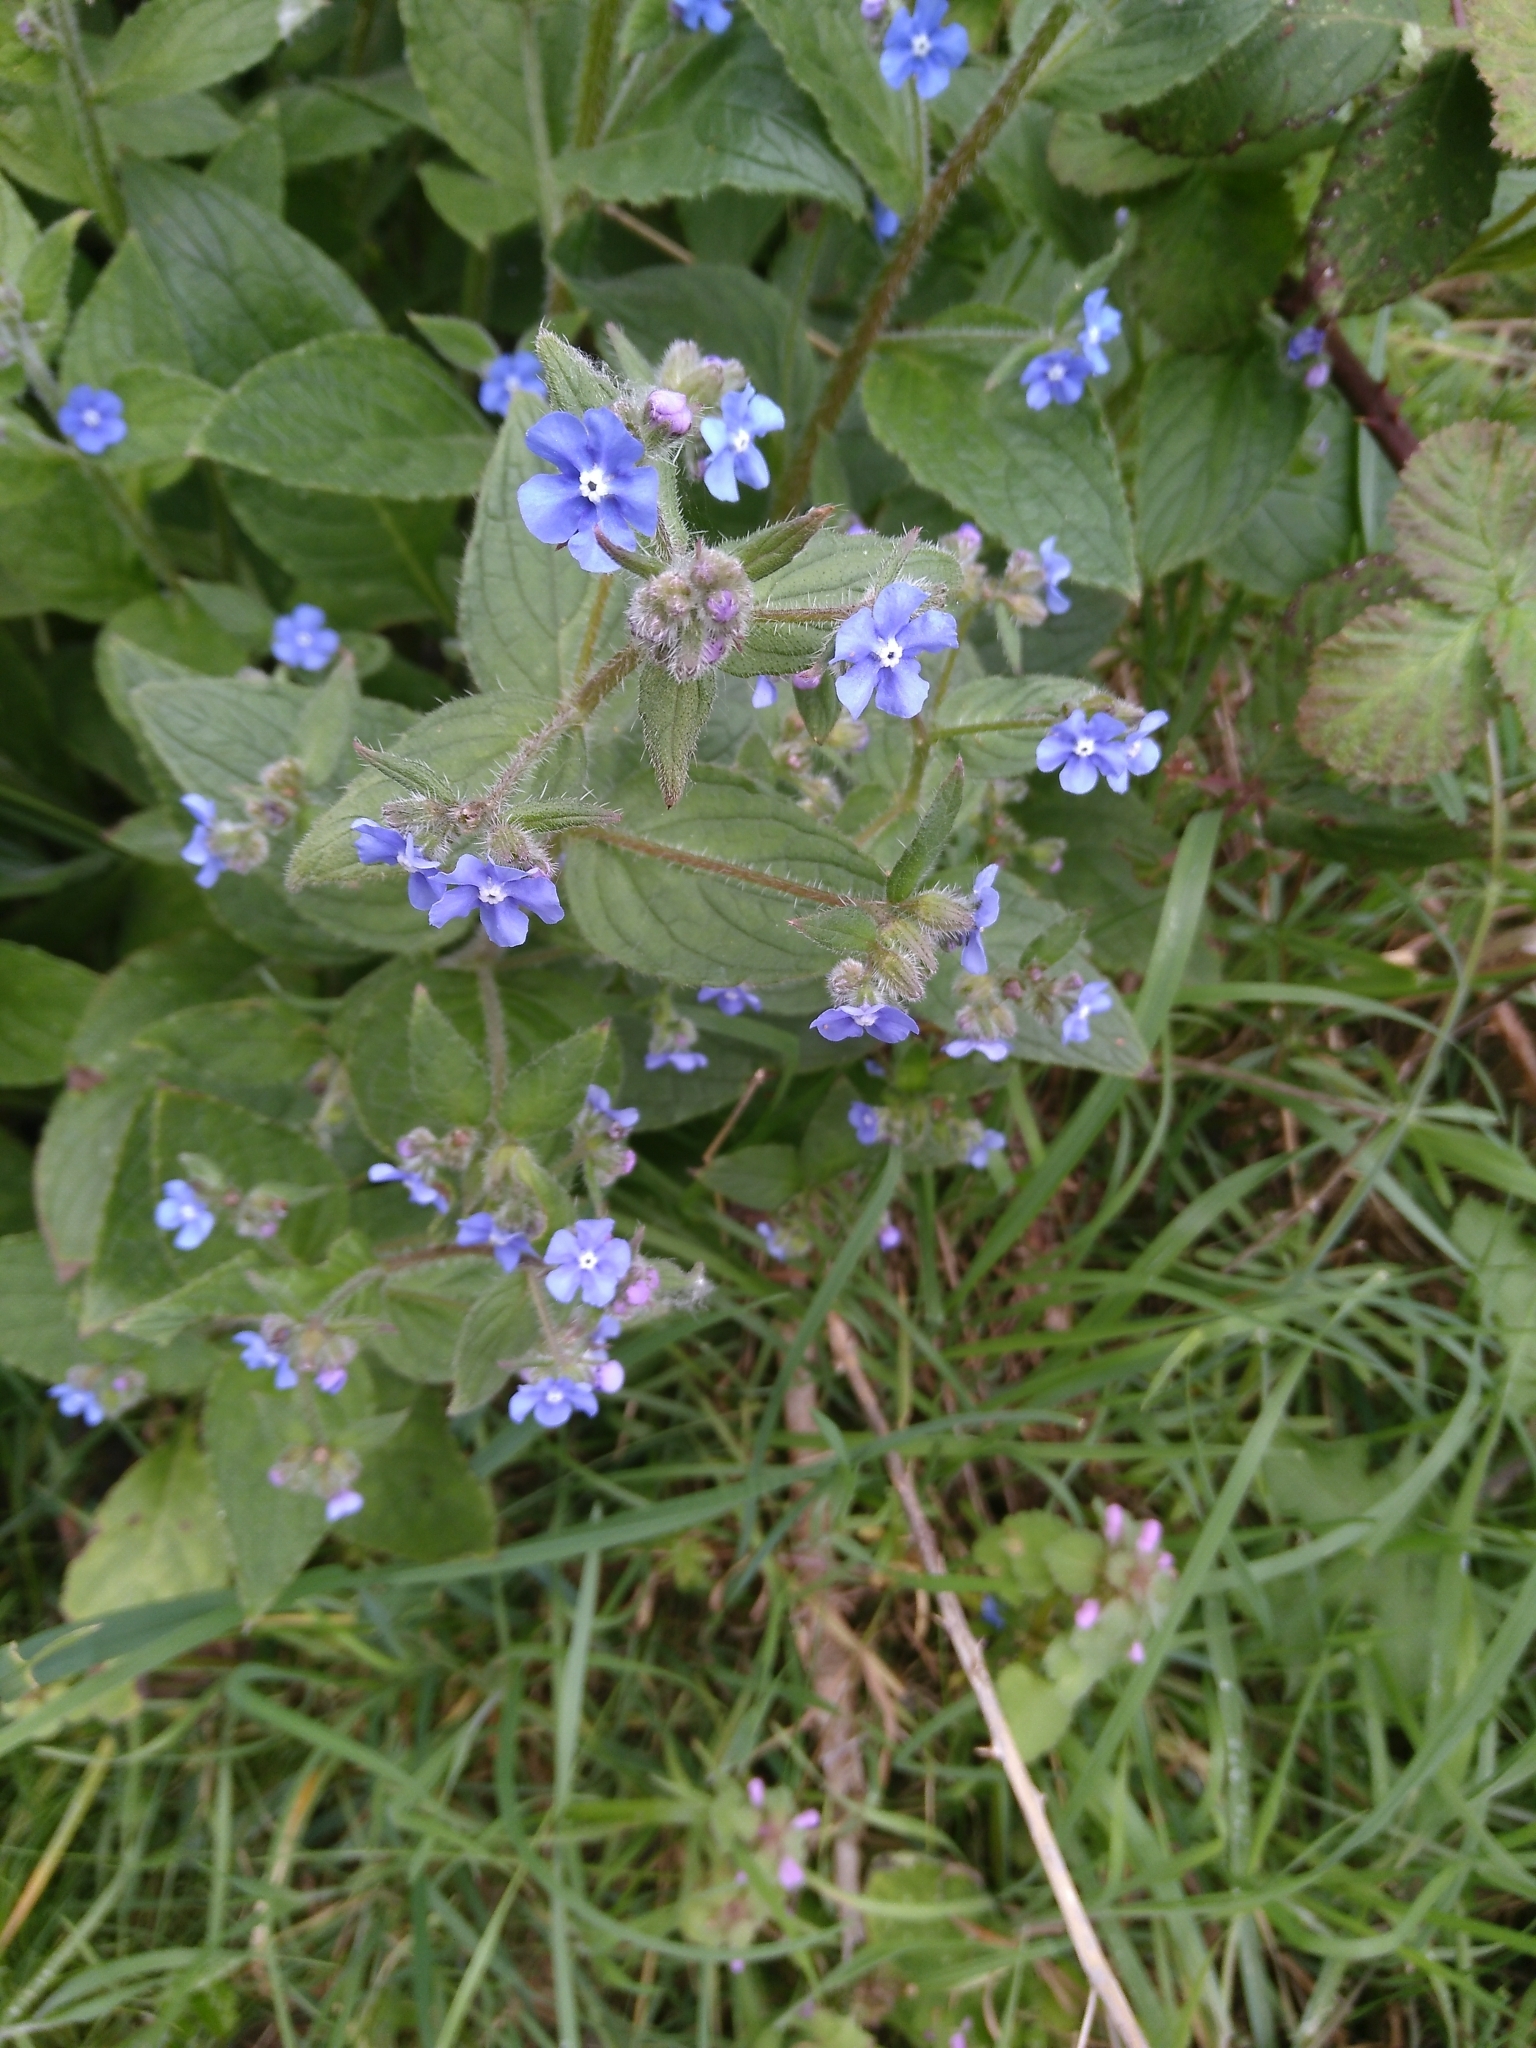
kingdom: Plantae
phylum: Tracheophyta
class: Magnoliopsida
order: Boraginales
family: Boraginaceae
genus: Pentaglottis
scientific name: Pentaglottis sempervirens
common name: Green alkanet
